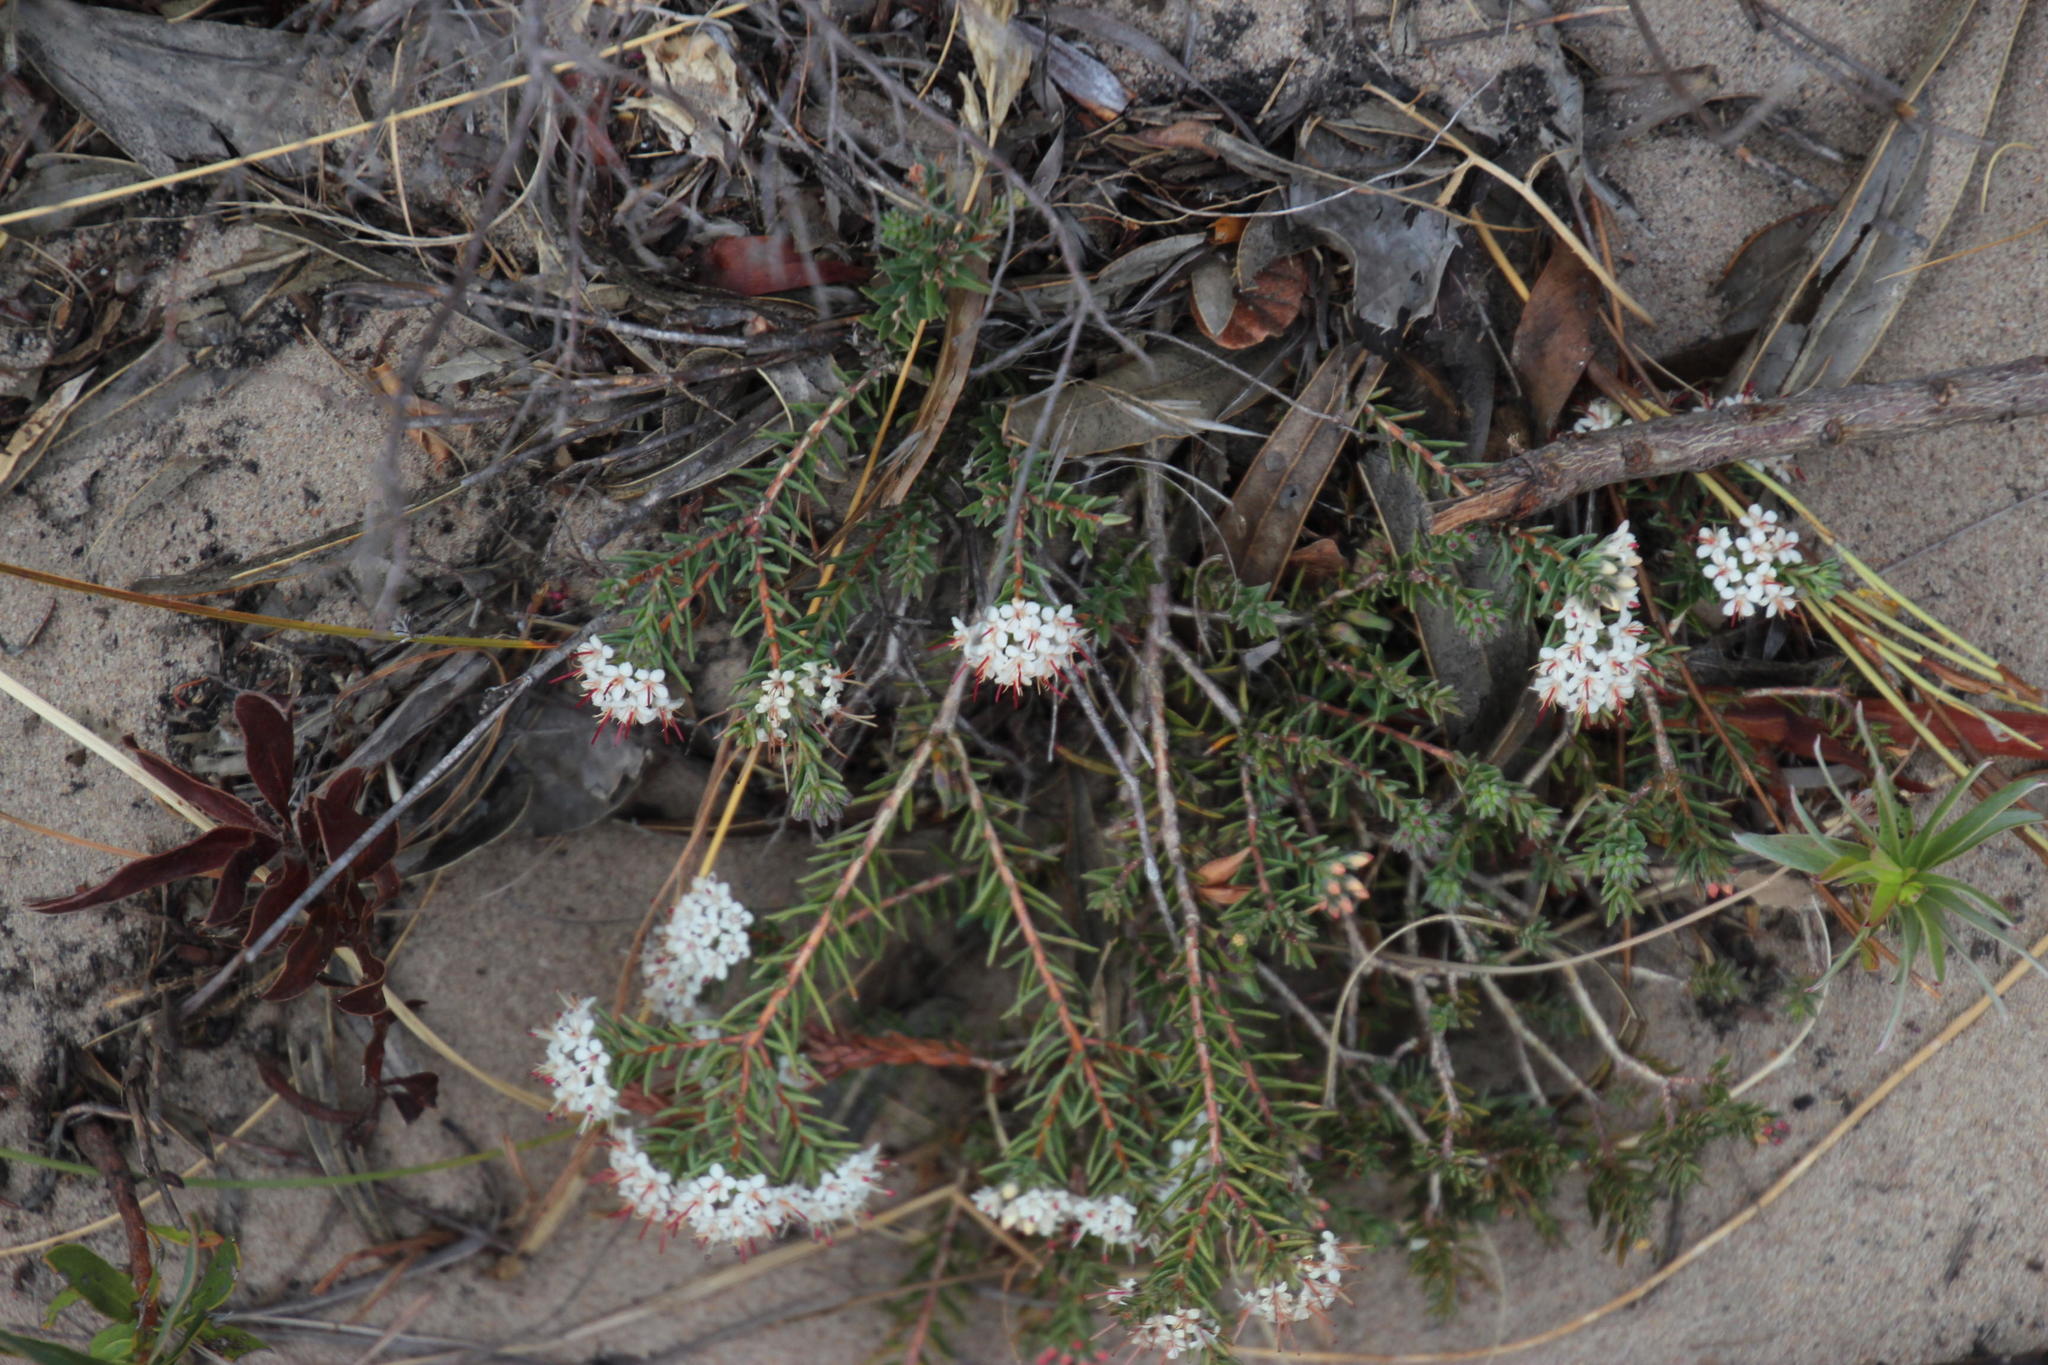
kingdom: Plantae
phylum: Tracheophyta
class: Magnoliopsida
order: Sapindales
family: Rutaceae
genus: Macrostylis
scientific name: Macrostylis villosa
